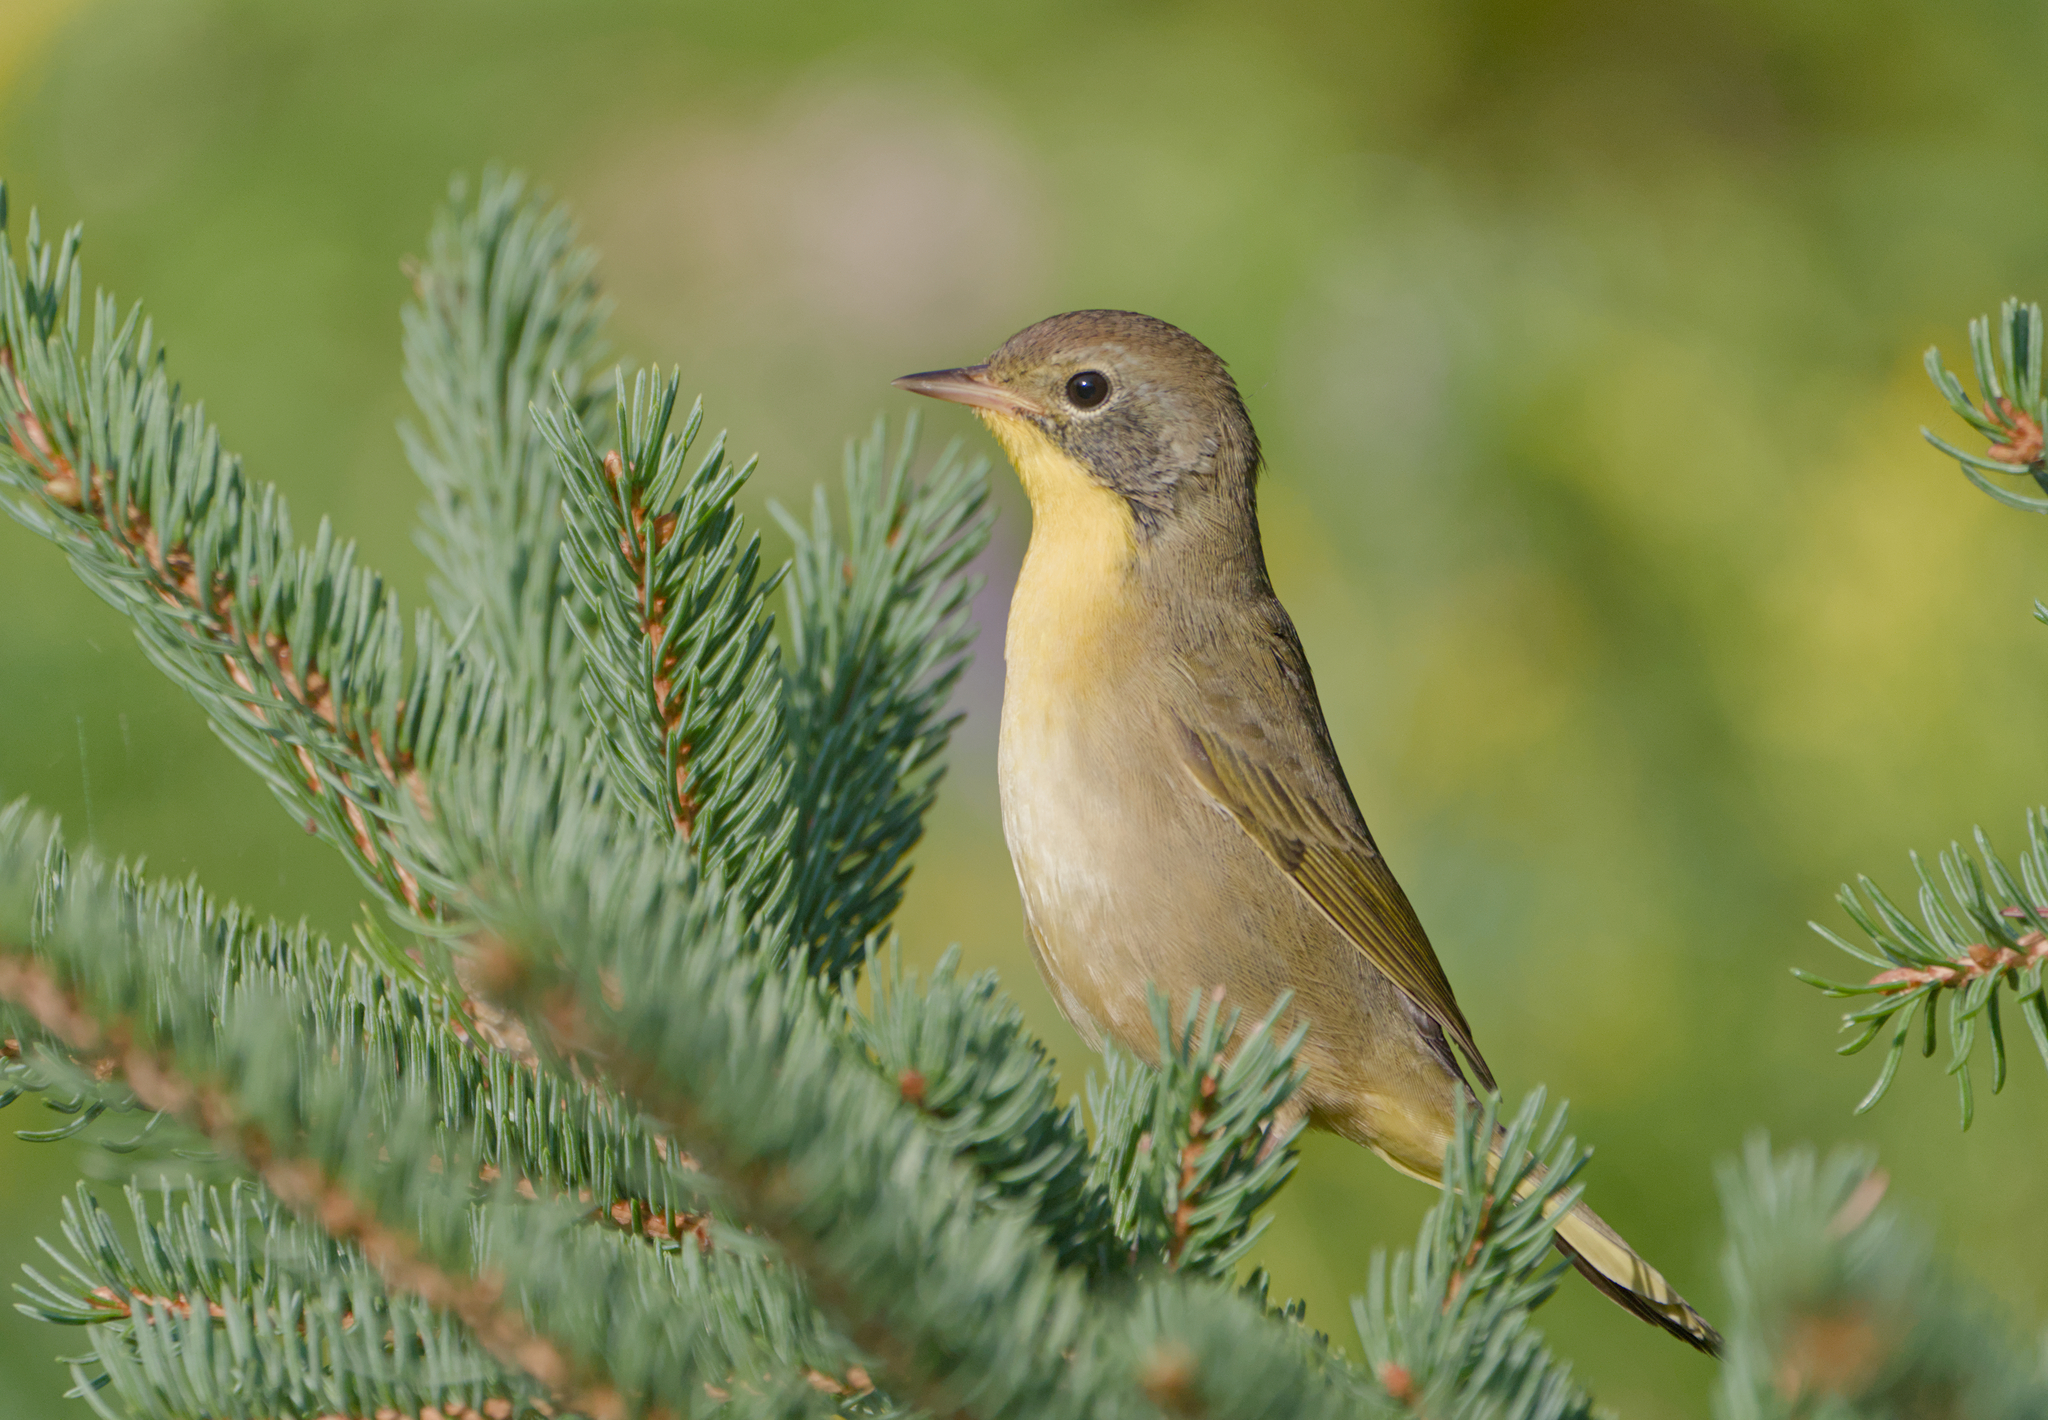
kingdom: Animalia
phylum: Chordata
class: Aves
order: Passeriformes
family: Parulidae
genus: Geothlypis
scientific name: Geothlypis trichas
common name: Common yellowthroat
